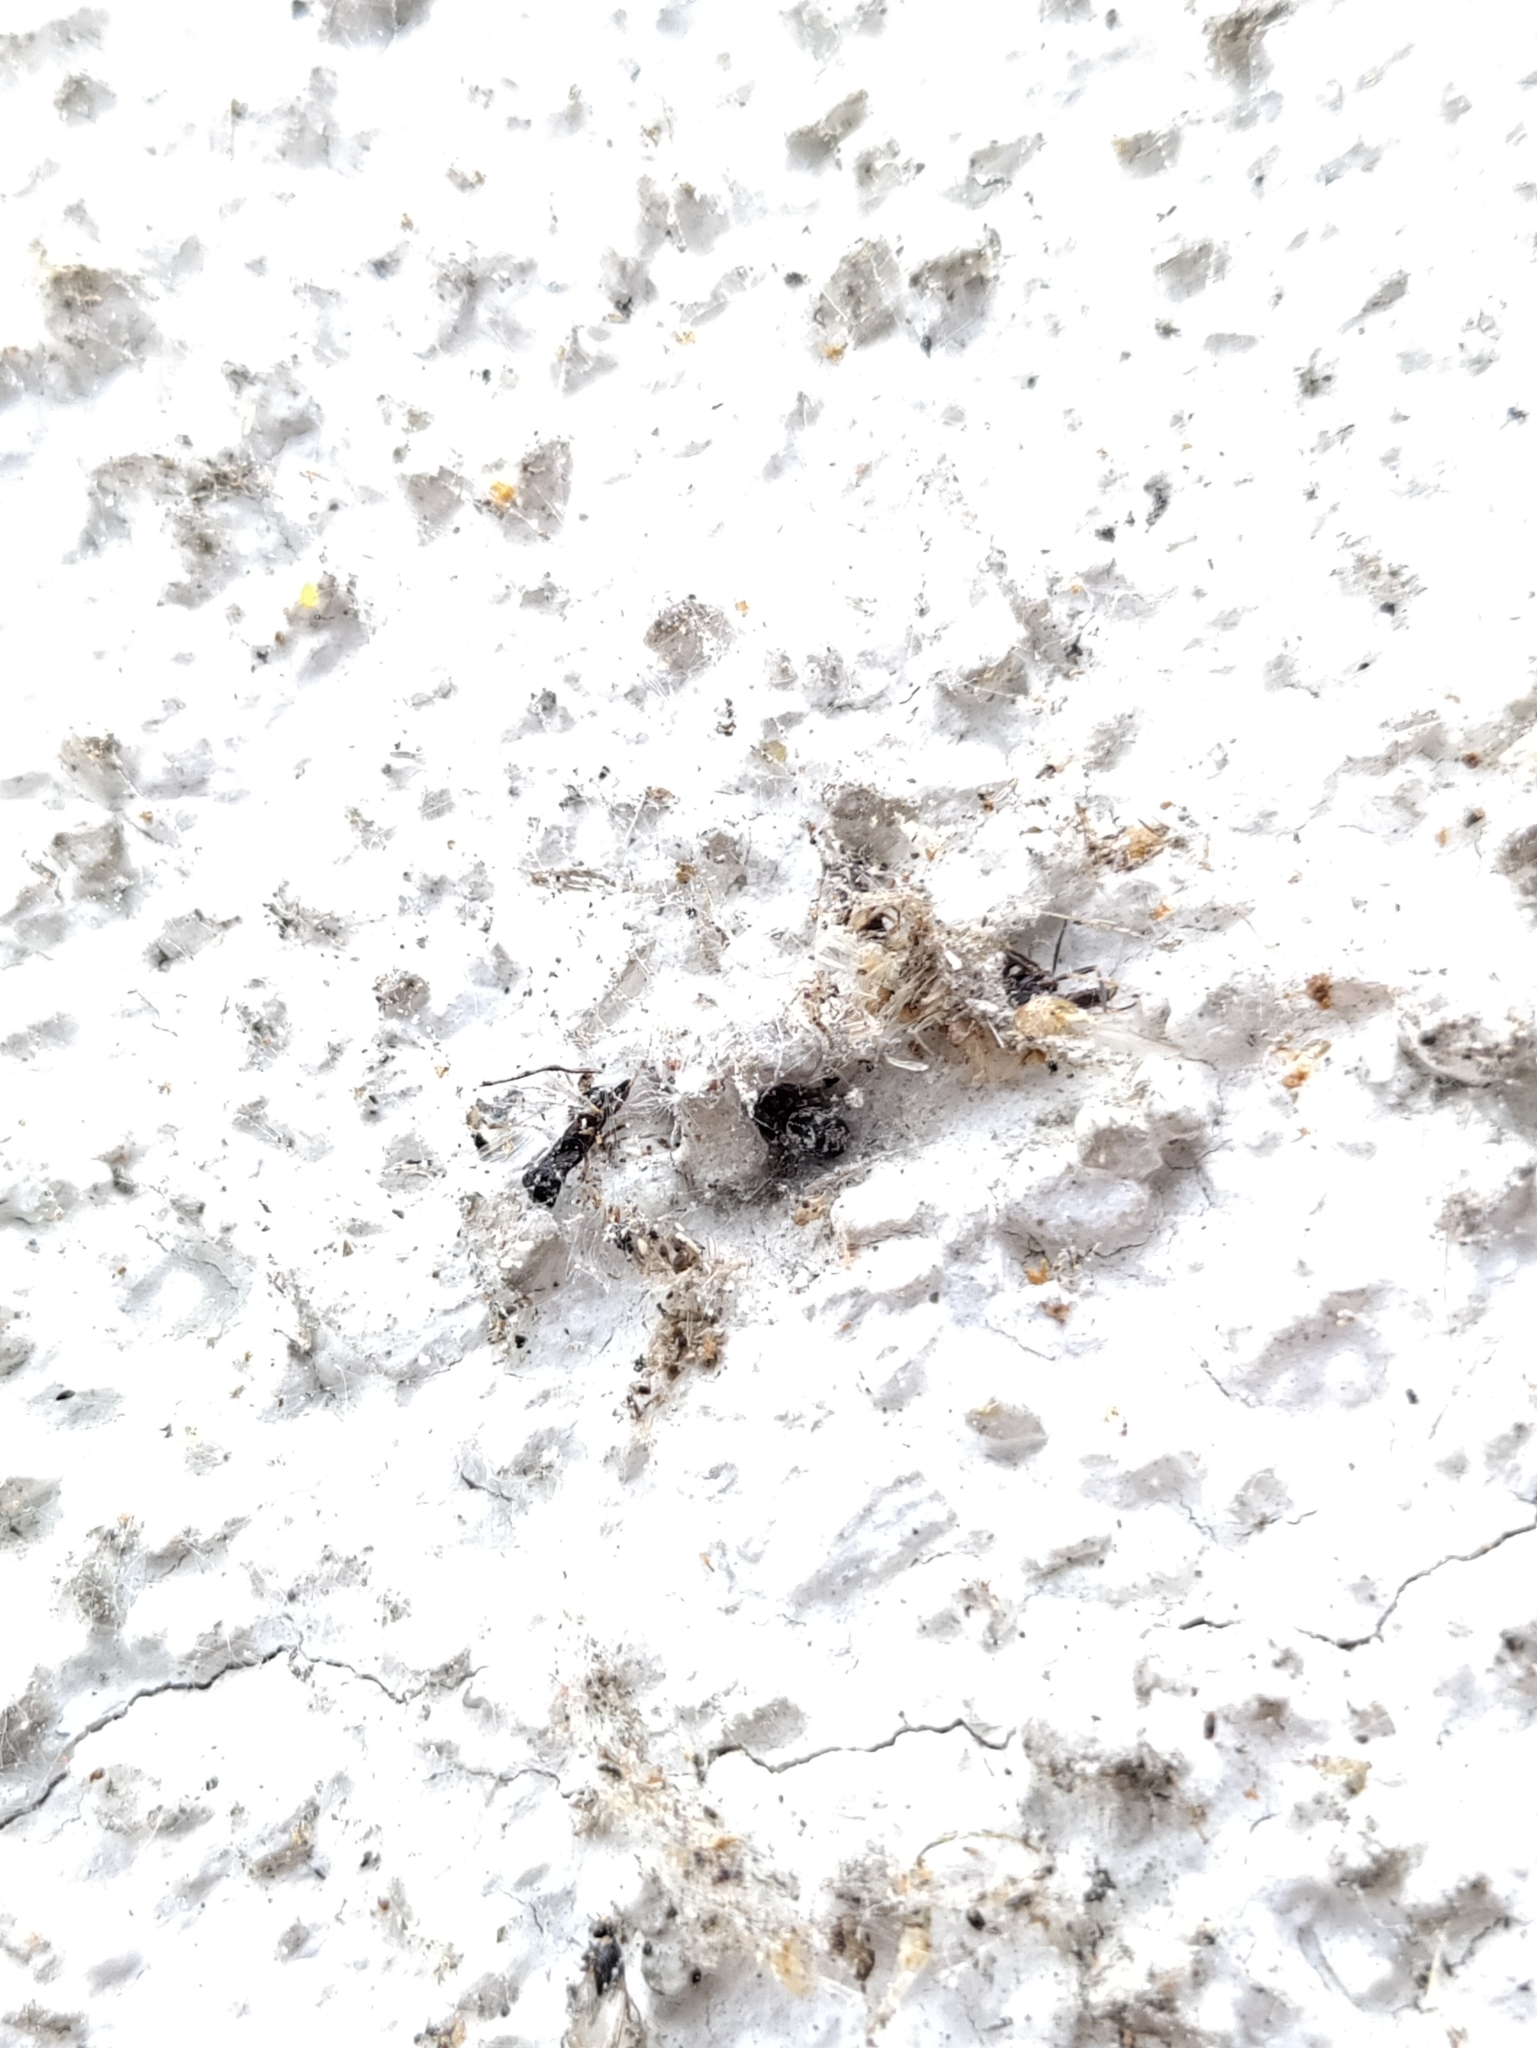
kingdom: Animalia
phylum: Arthropoda
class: Arachnida
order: Araneae
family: Dictynidae
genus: Brigittea
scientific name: Brigittea civica
